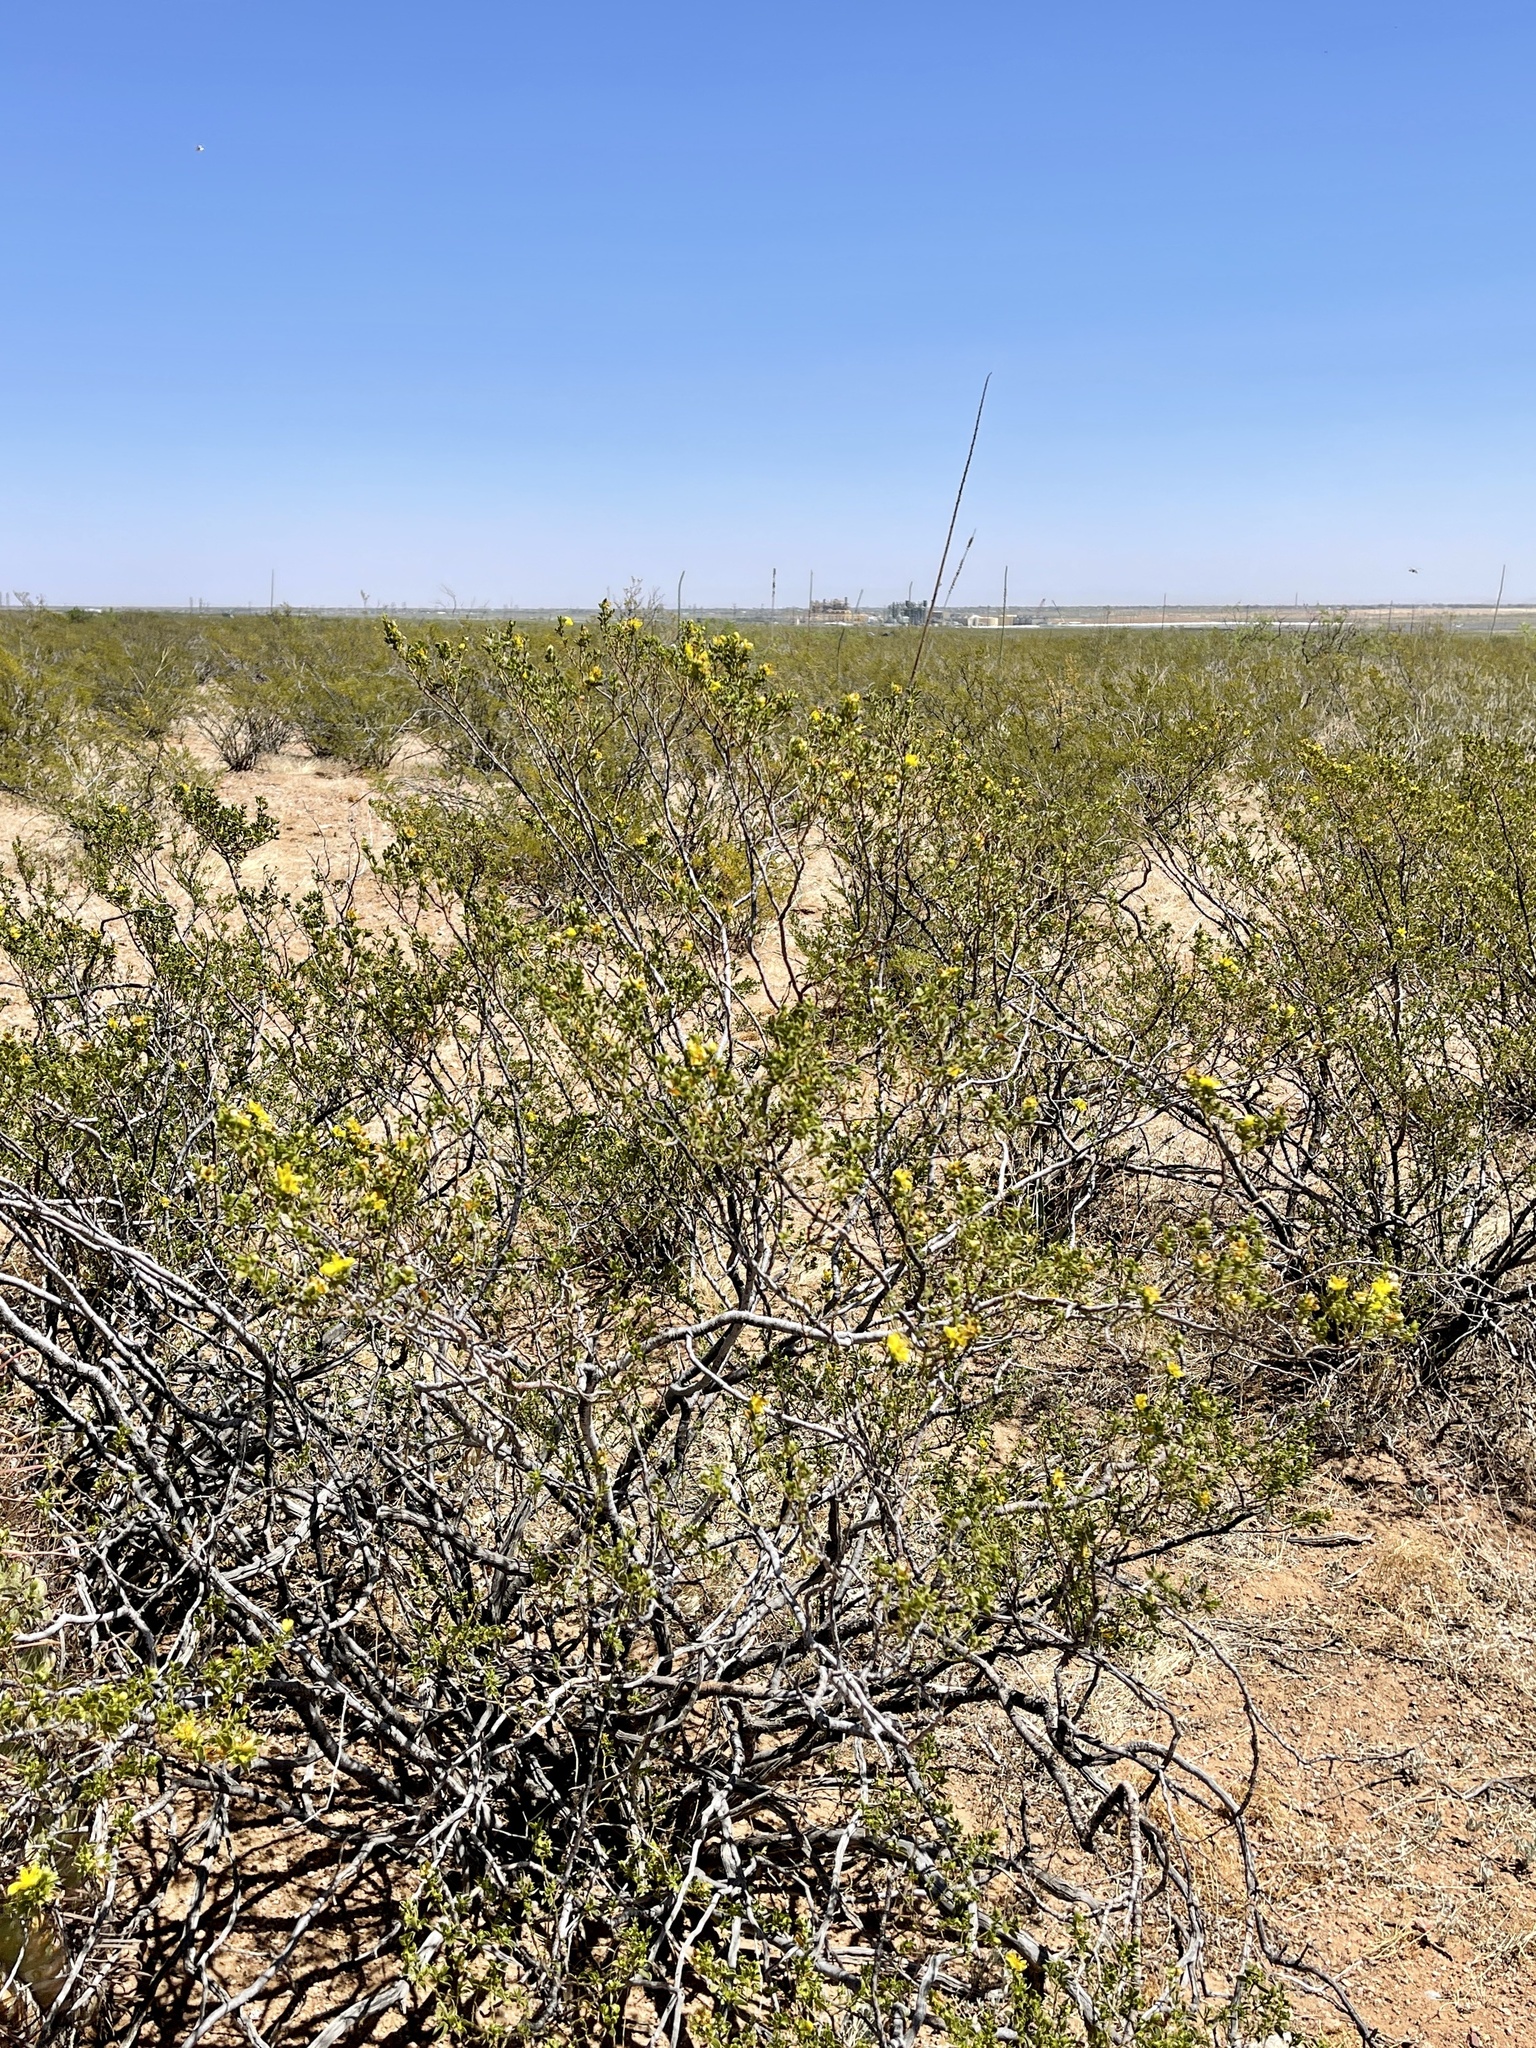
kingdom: Plantae
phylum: Tracheophyta
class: Magnoliopsida
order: Zygophyllales
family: Zygophyllaceae
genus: Larrea
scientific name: Larrea tridentata
